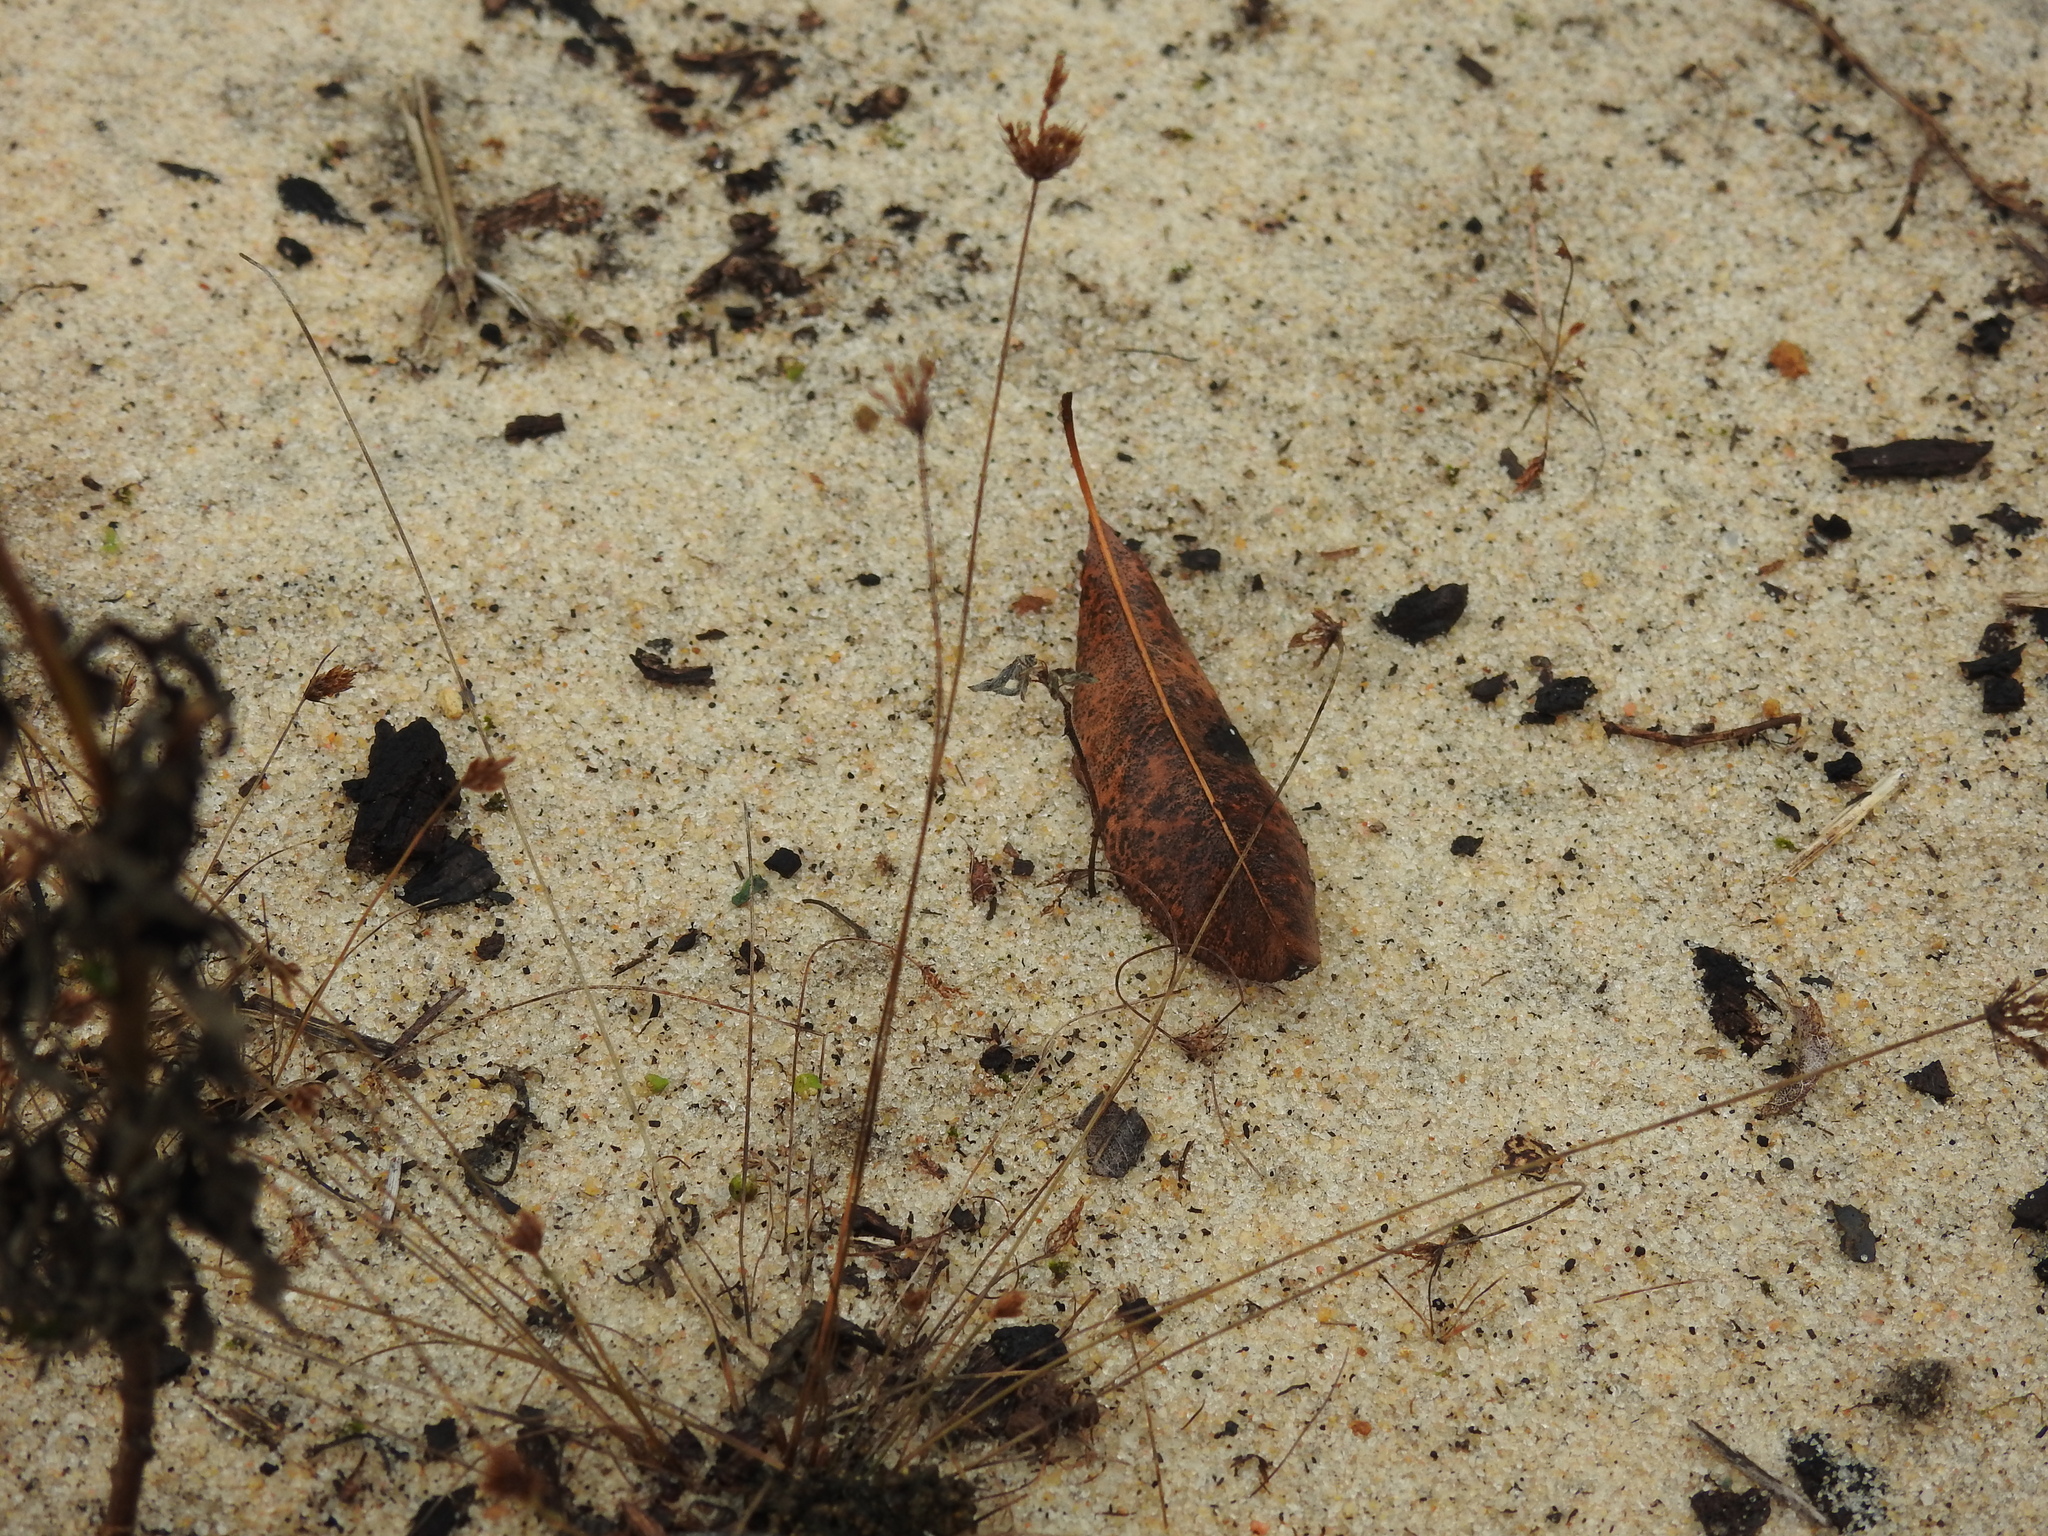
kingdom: Plantae
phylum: Tracheophyta
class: Liliopsida
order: Poales
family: Cyperaceae
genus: Bulbostylis
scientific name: Bulbostylis ciliatifolia
